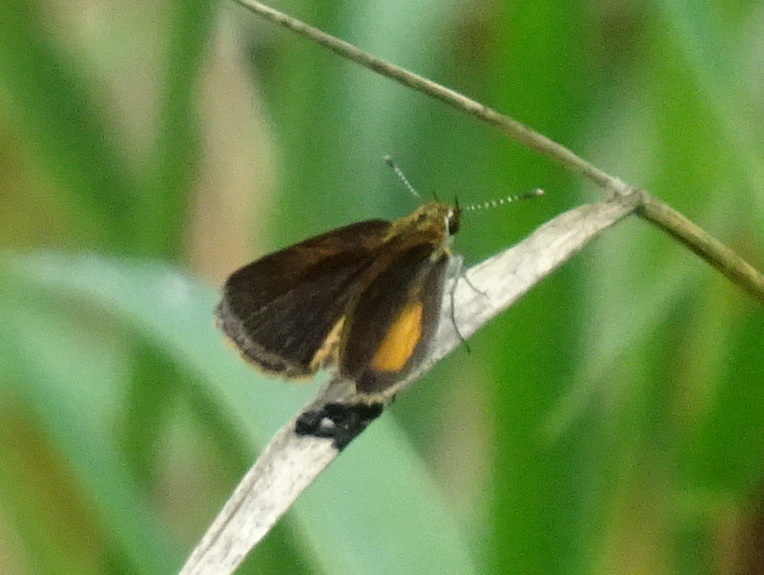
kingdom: Animalia
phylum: Arthropoda
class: Insecta
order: Lepidoptera
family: Hesperiidae
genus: Ancyloxypha
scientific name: Ancyloxypha numitor
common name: Least skipper
